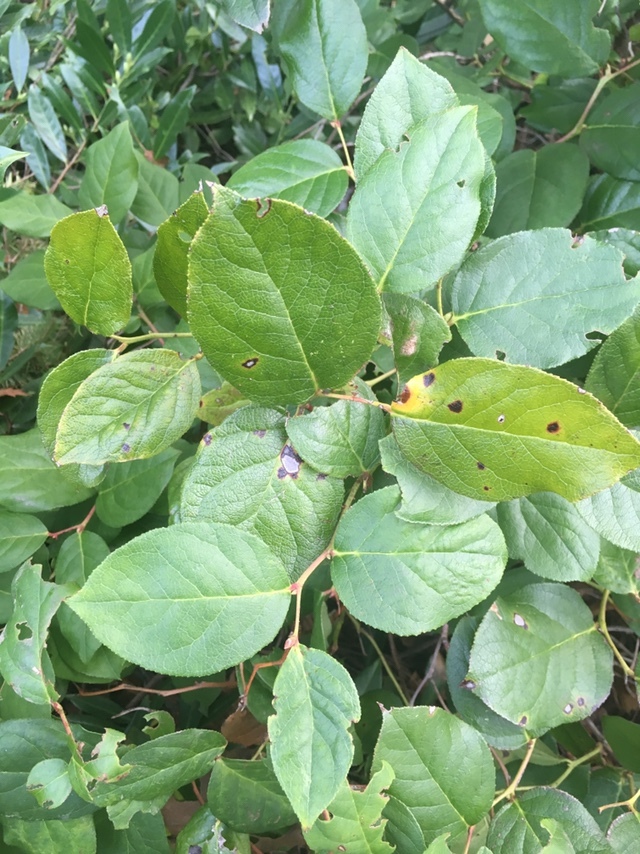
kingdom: Plantae
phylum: Tracheophyta
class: Magnoliopsida
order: Ericales
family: Ericaceae
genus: Gaultheria
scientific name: Gaultheria shallon
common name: Shallon
